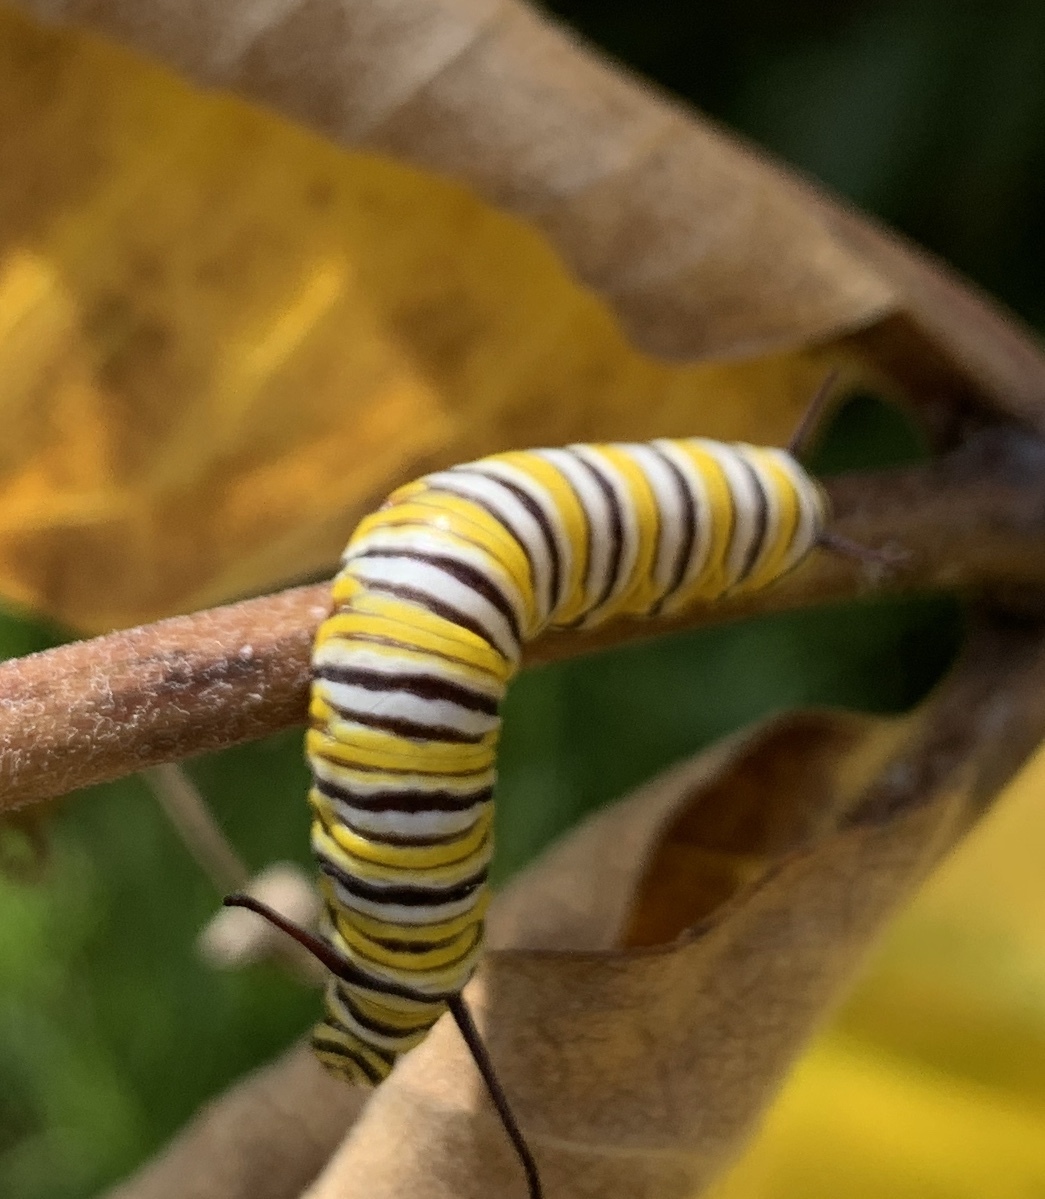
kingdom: Animalia
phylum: Arthropoda
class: Insecta
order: Lepidoptera
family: Nymphalidae
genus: Danaus
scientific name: Danaus plexippus
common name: Monarch
